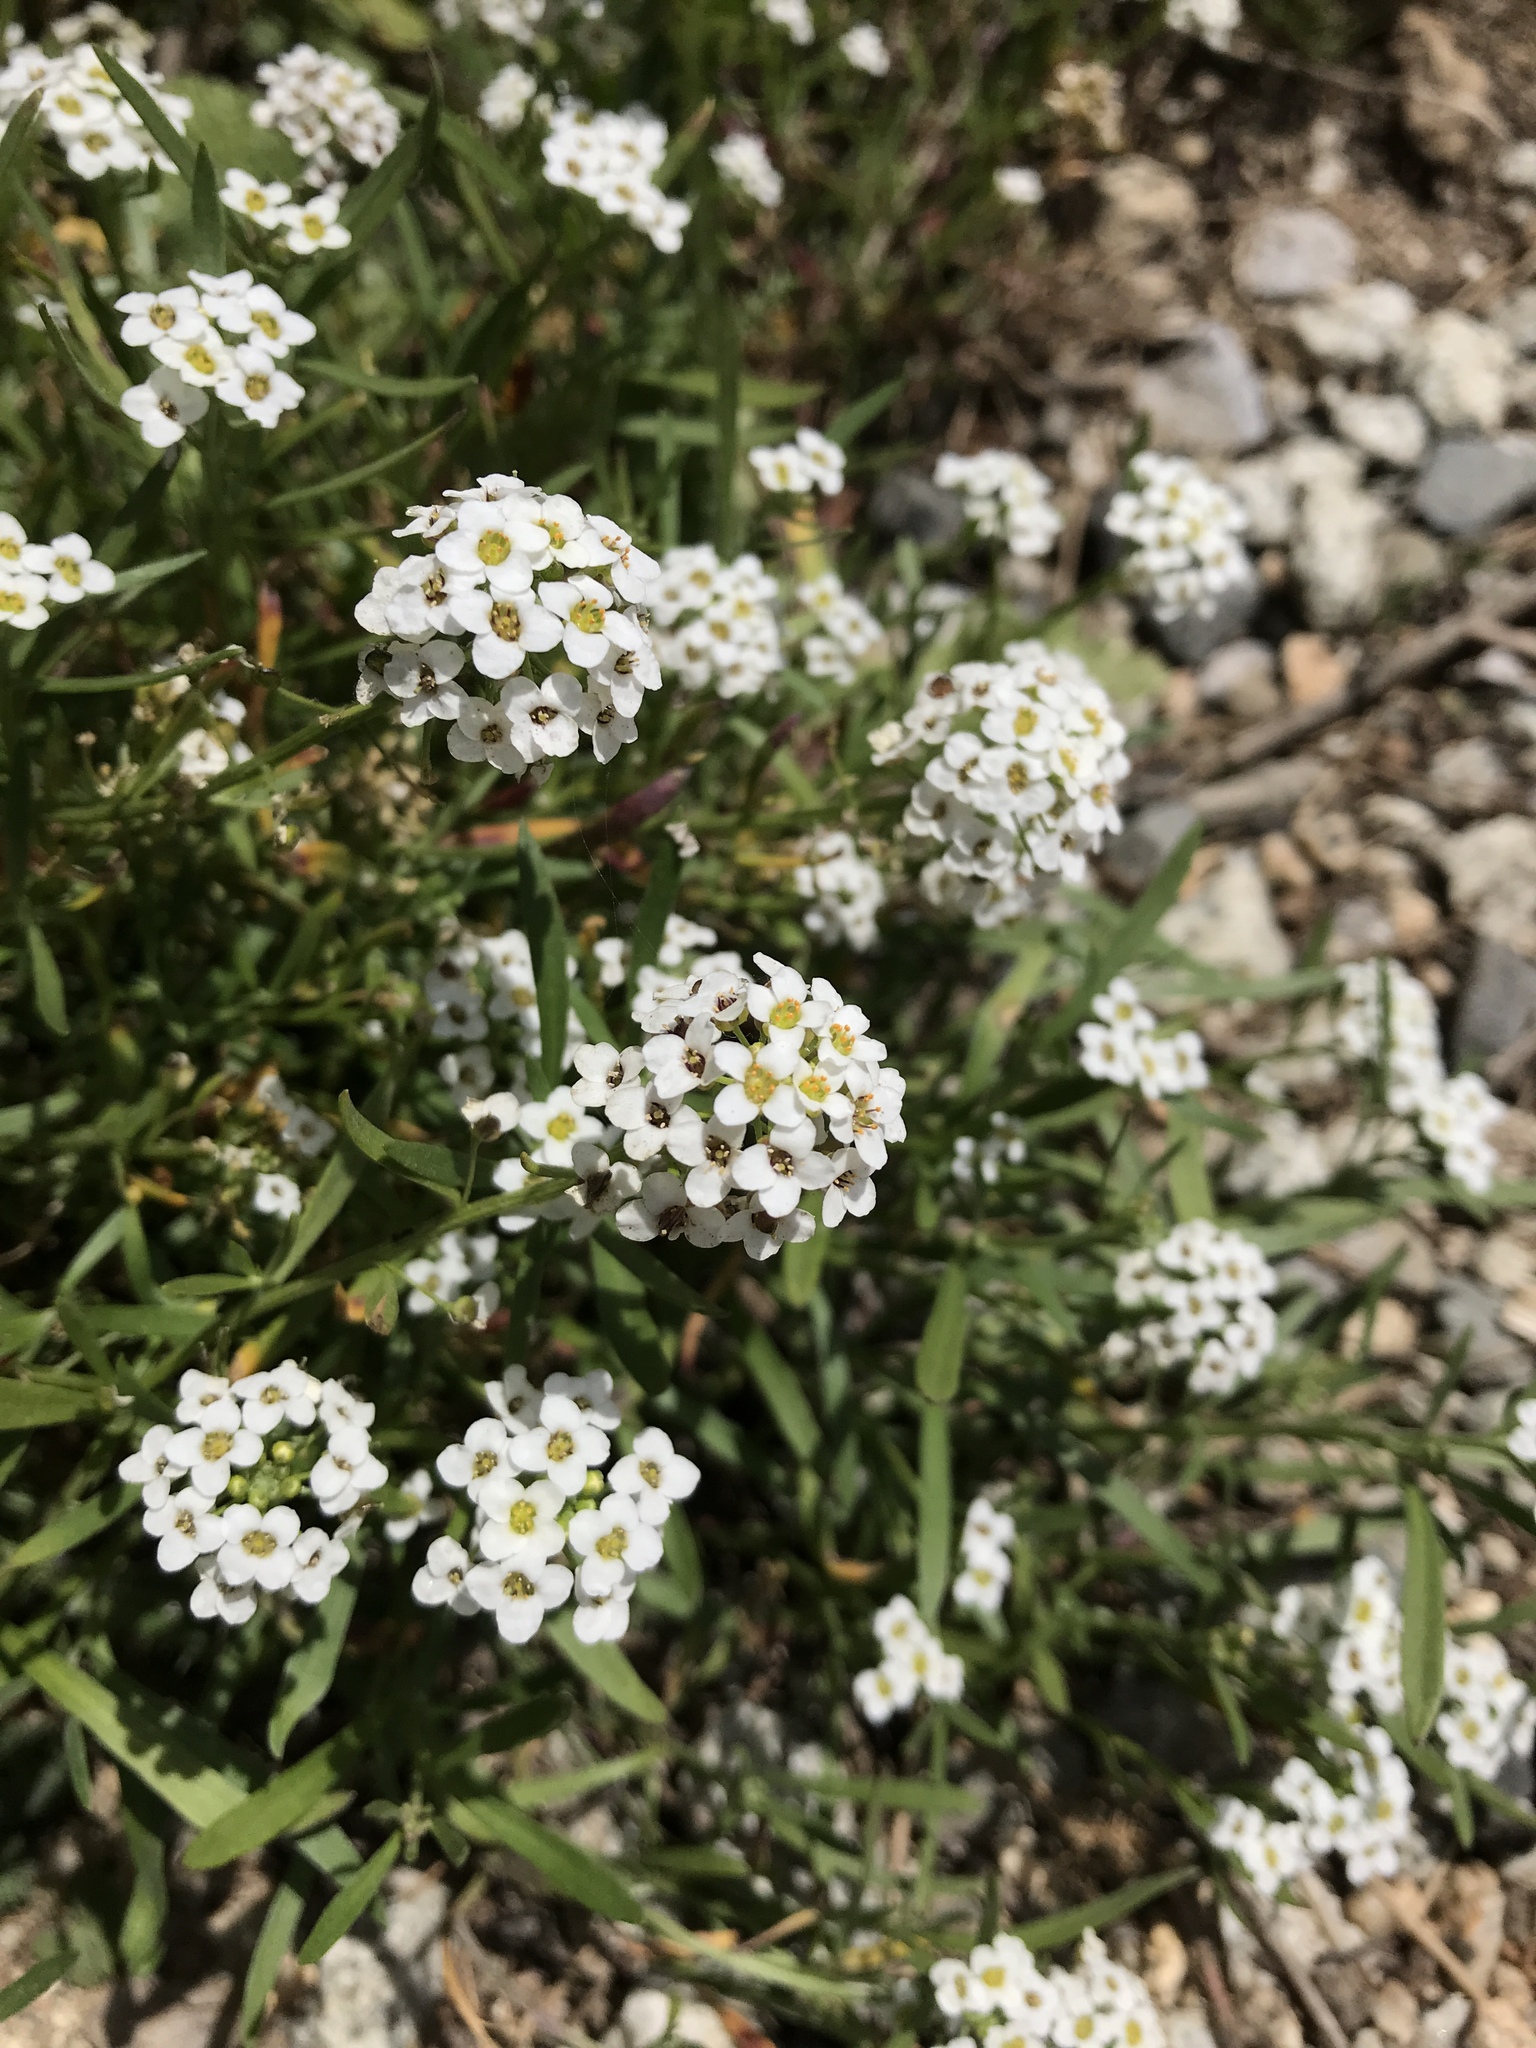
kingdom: Plantae
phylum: Tracheophyta
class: Magnoliopsida
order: Brassicales
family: Brassicaceae
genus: Lobularia
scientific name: Lobularia maritima
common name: Sweet alison
